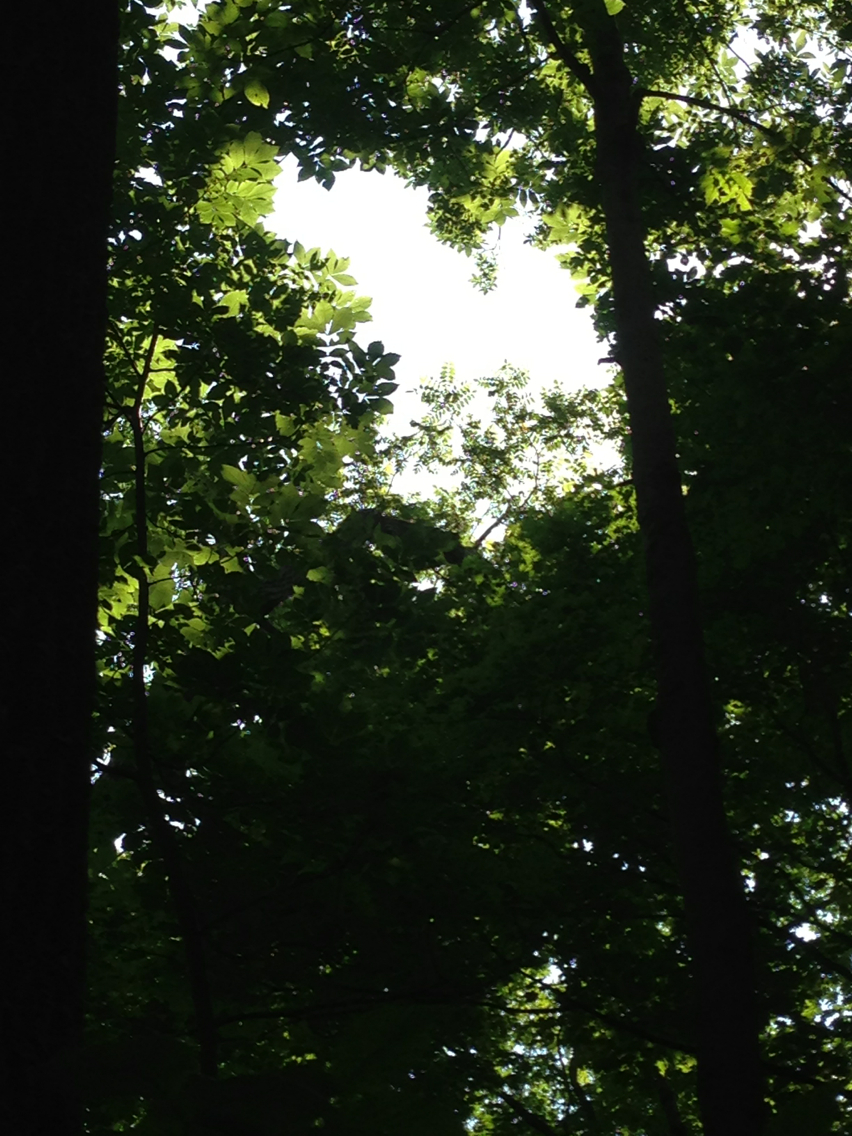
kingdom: Plantae
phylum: Tracheophyta
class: Magnoliopsida
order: Fagales
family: Juglandaceae
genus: Juglans
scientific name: Juglans cinerea
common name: Butternut
